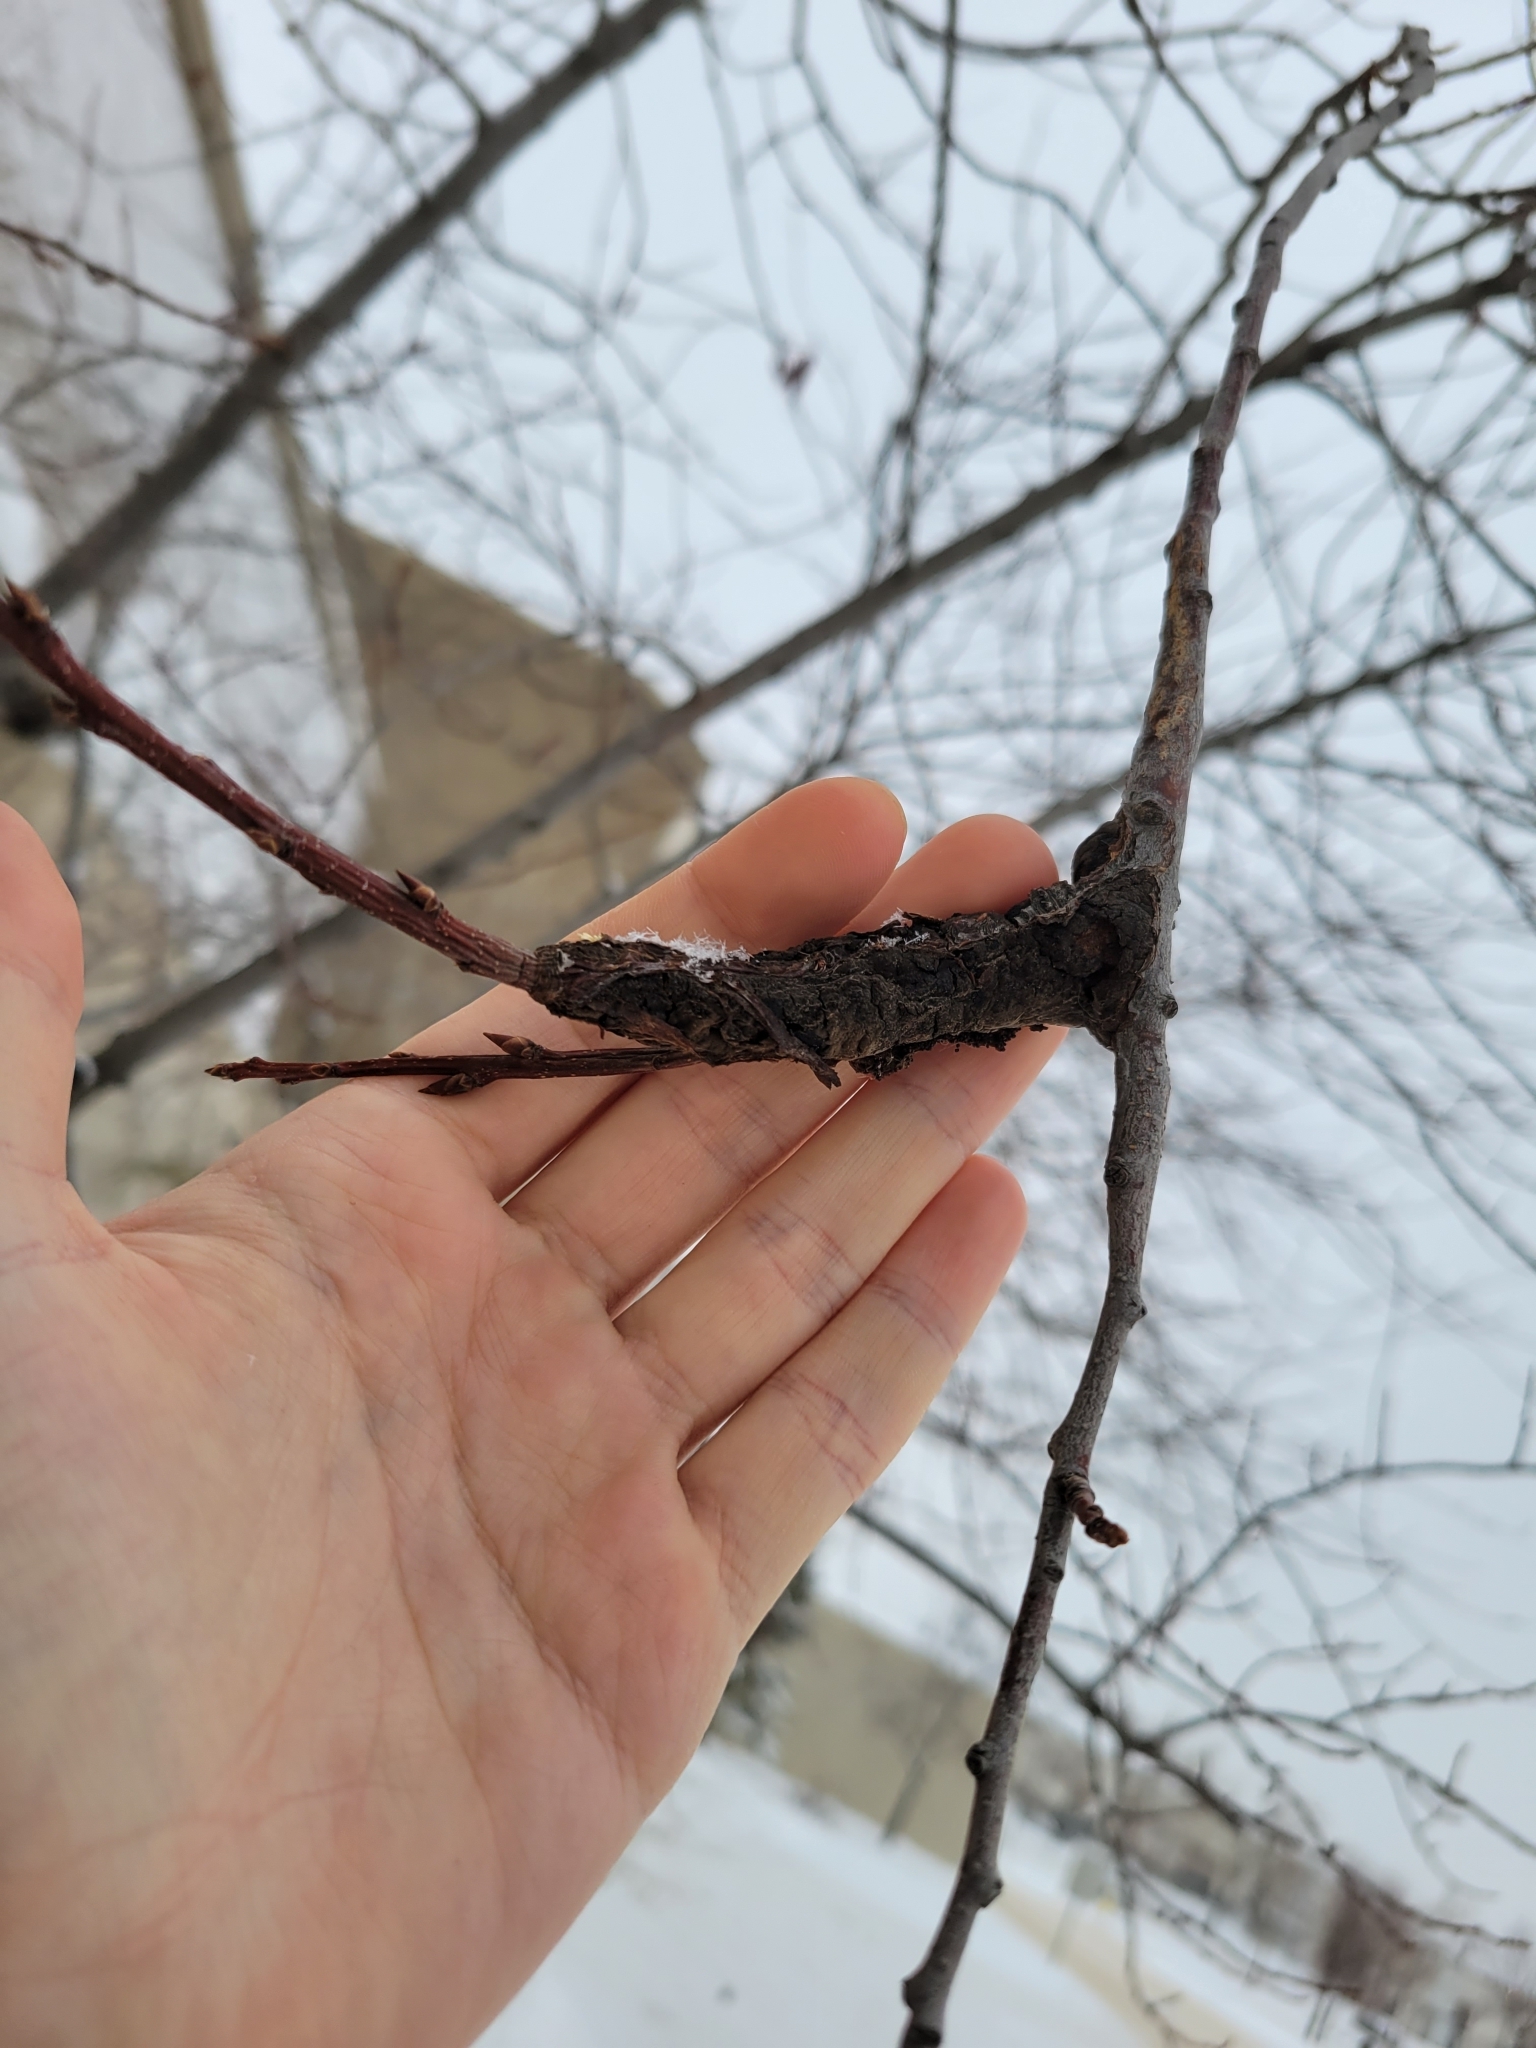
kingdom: Fungi
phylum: Ascomycota
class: Dothideomycetes
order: Venturiales
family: Venturiaceae
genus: Apiosporina
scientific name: Apiosporina morbosa
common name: Black knot
